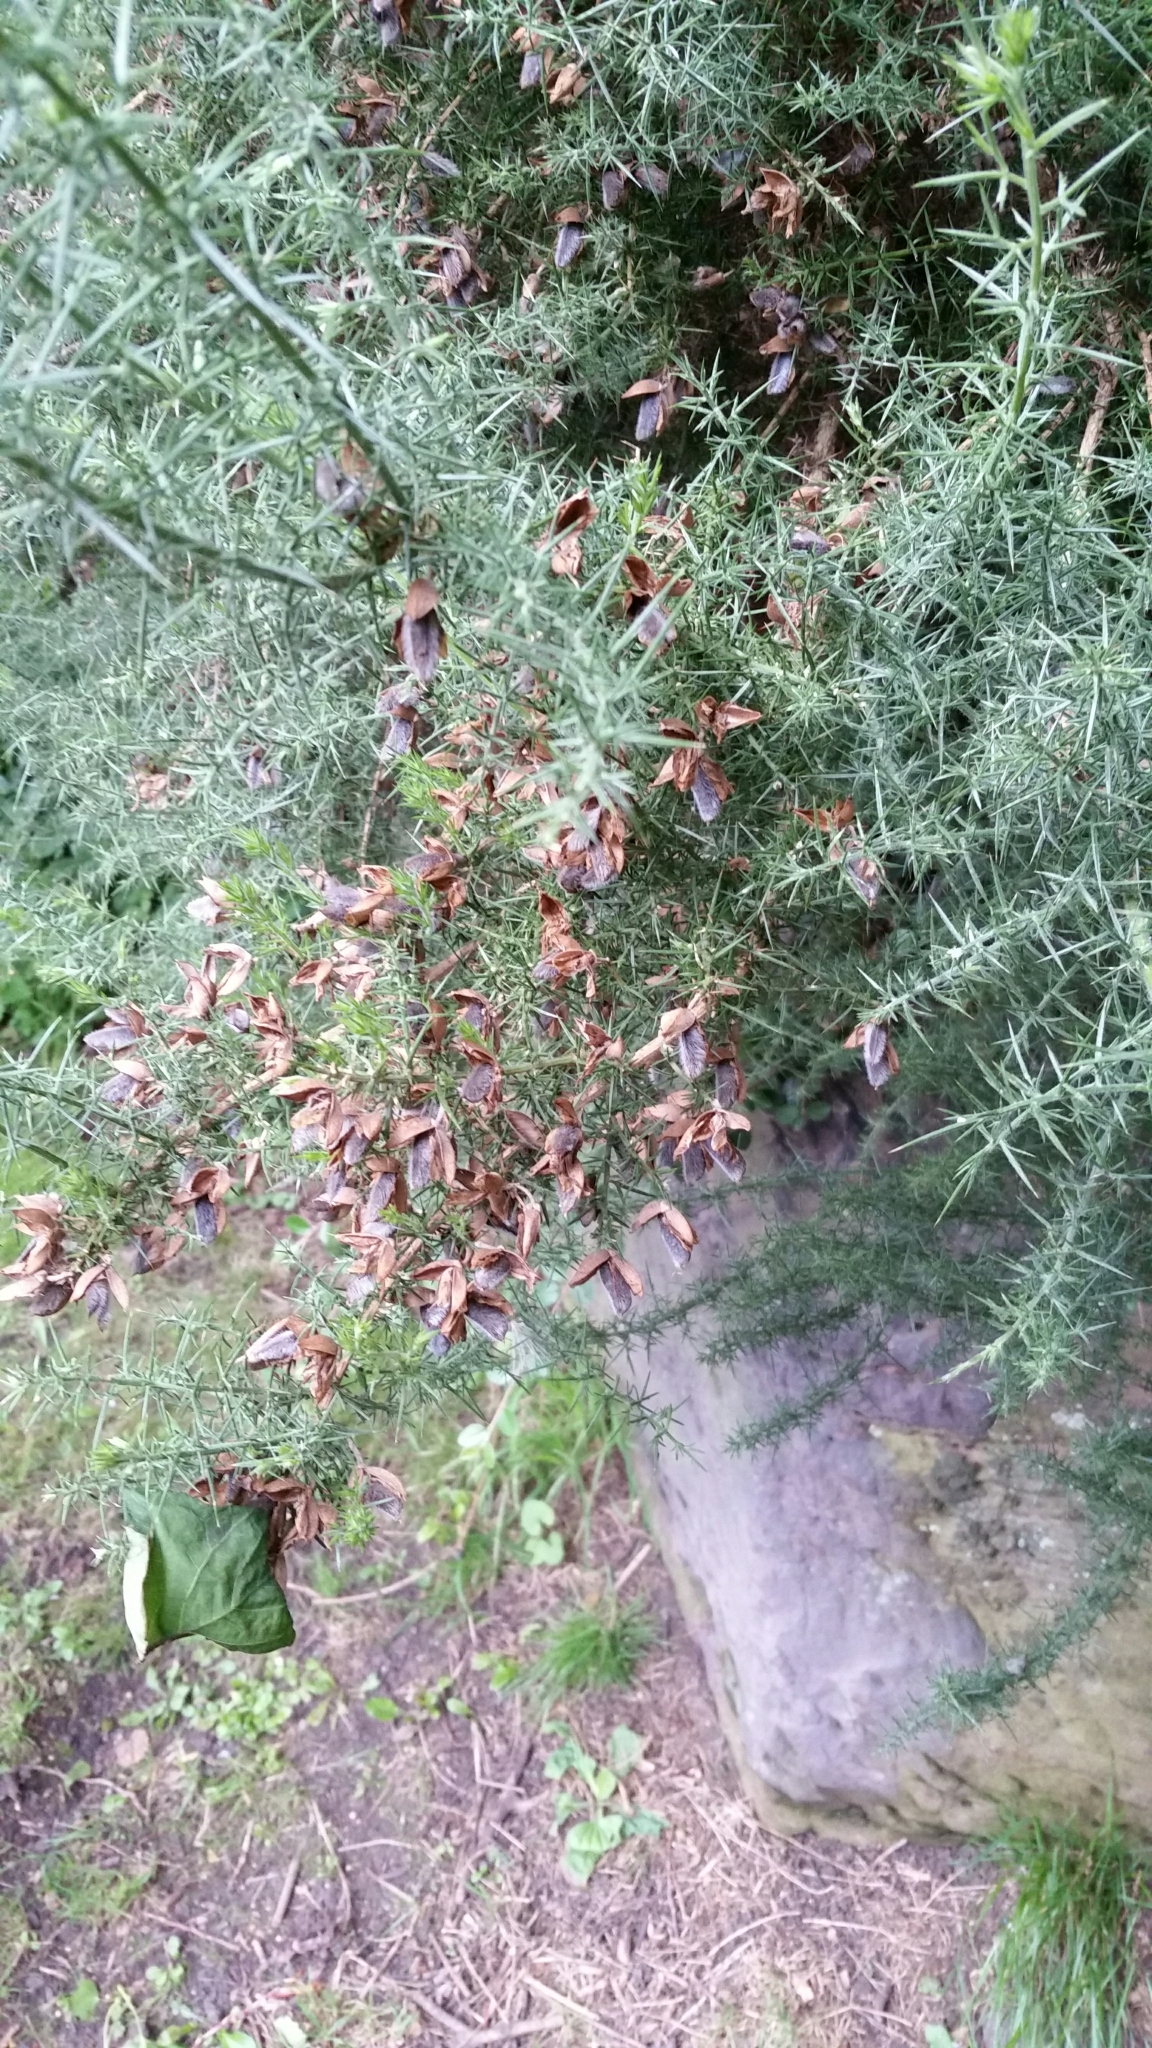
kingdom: Plantae
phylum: Tracheophyta
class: Magnoliopsida
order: Fabales
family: Fabaceae
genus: Ulex
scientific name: Ulex europaeus
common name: Common gorse
